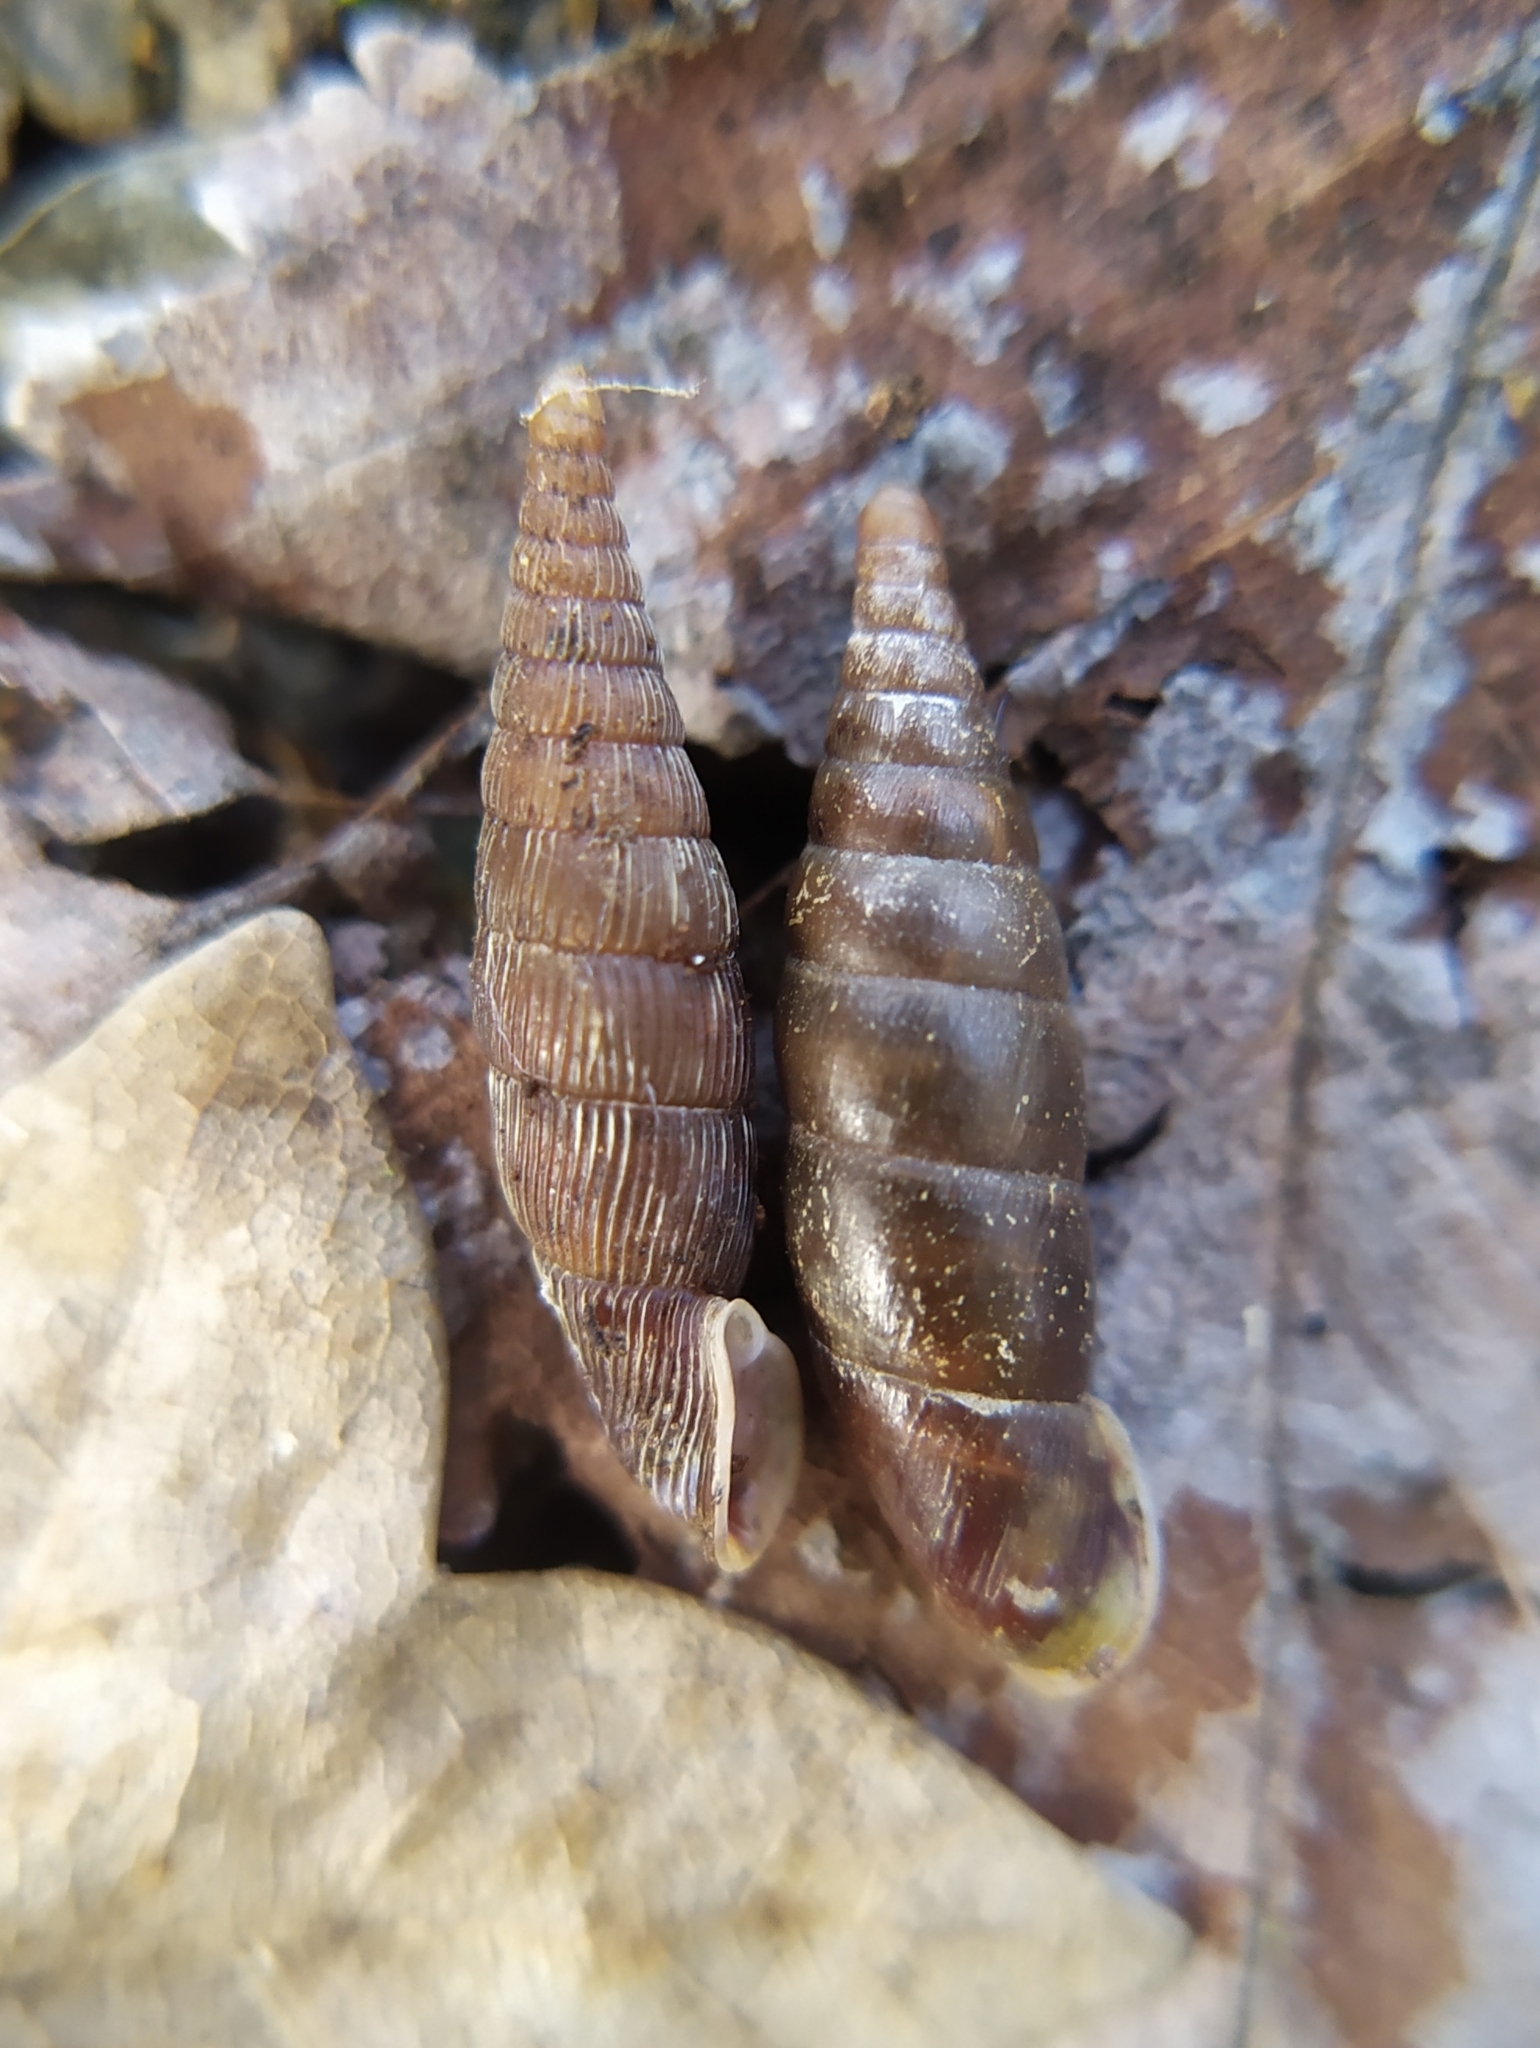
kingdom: Animalia
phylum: Mollusca
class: Gastropoda
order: Stylommatophora
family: Clausiliidae
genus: Alinda
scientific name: Alinda biplicata
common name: Thames door snail
